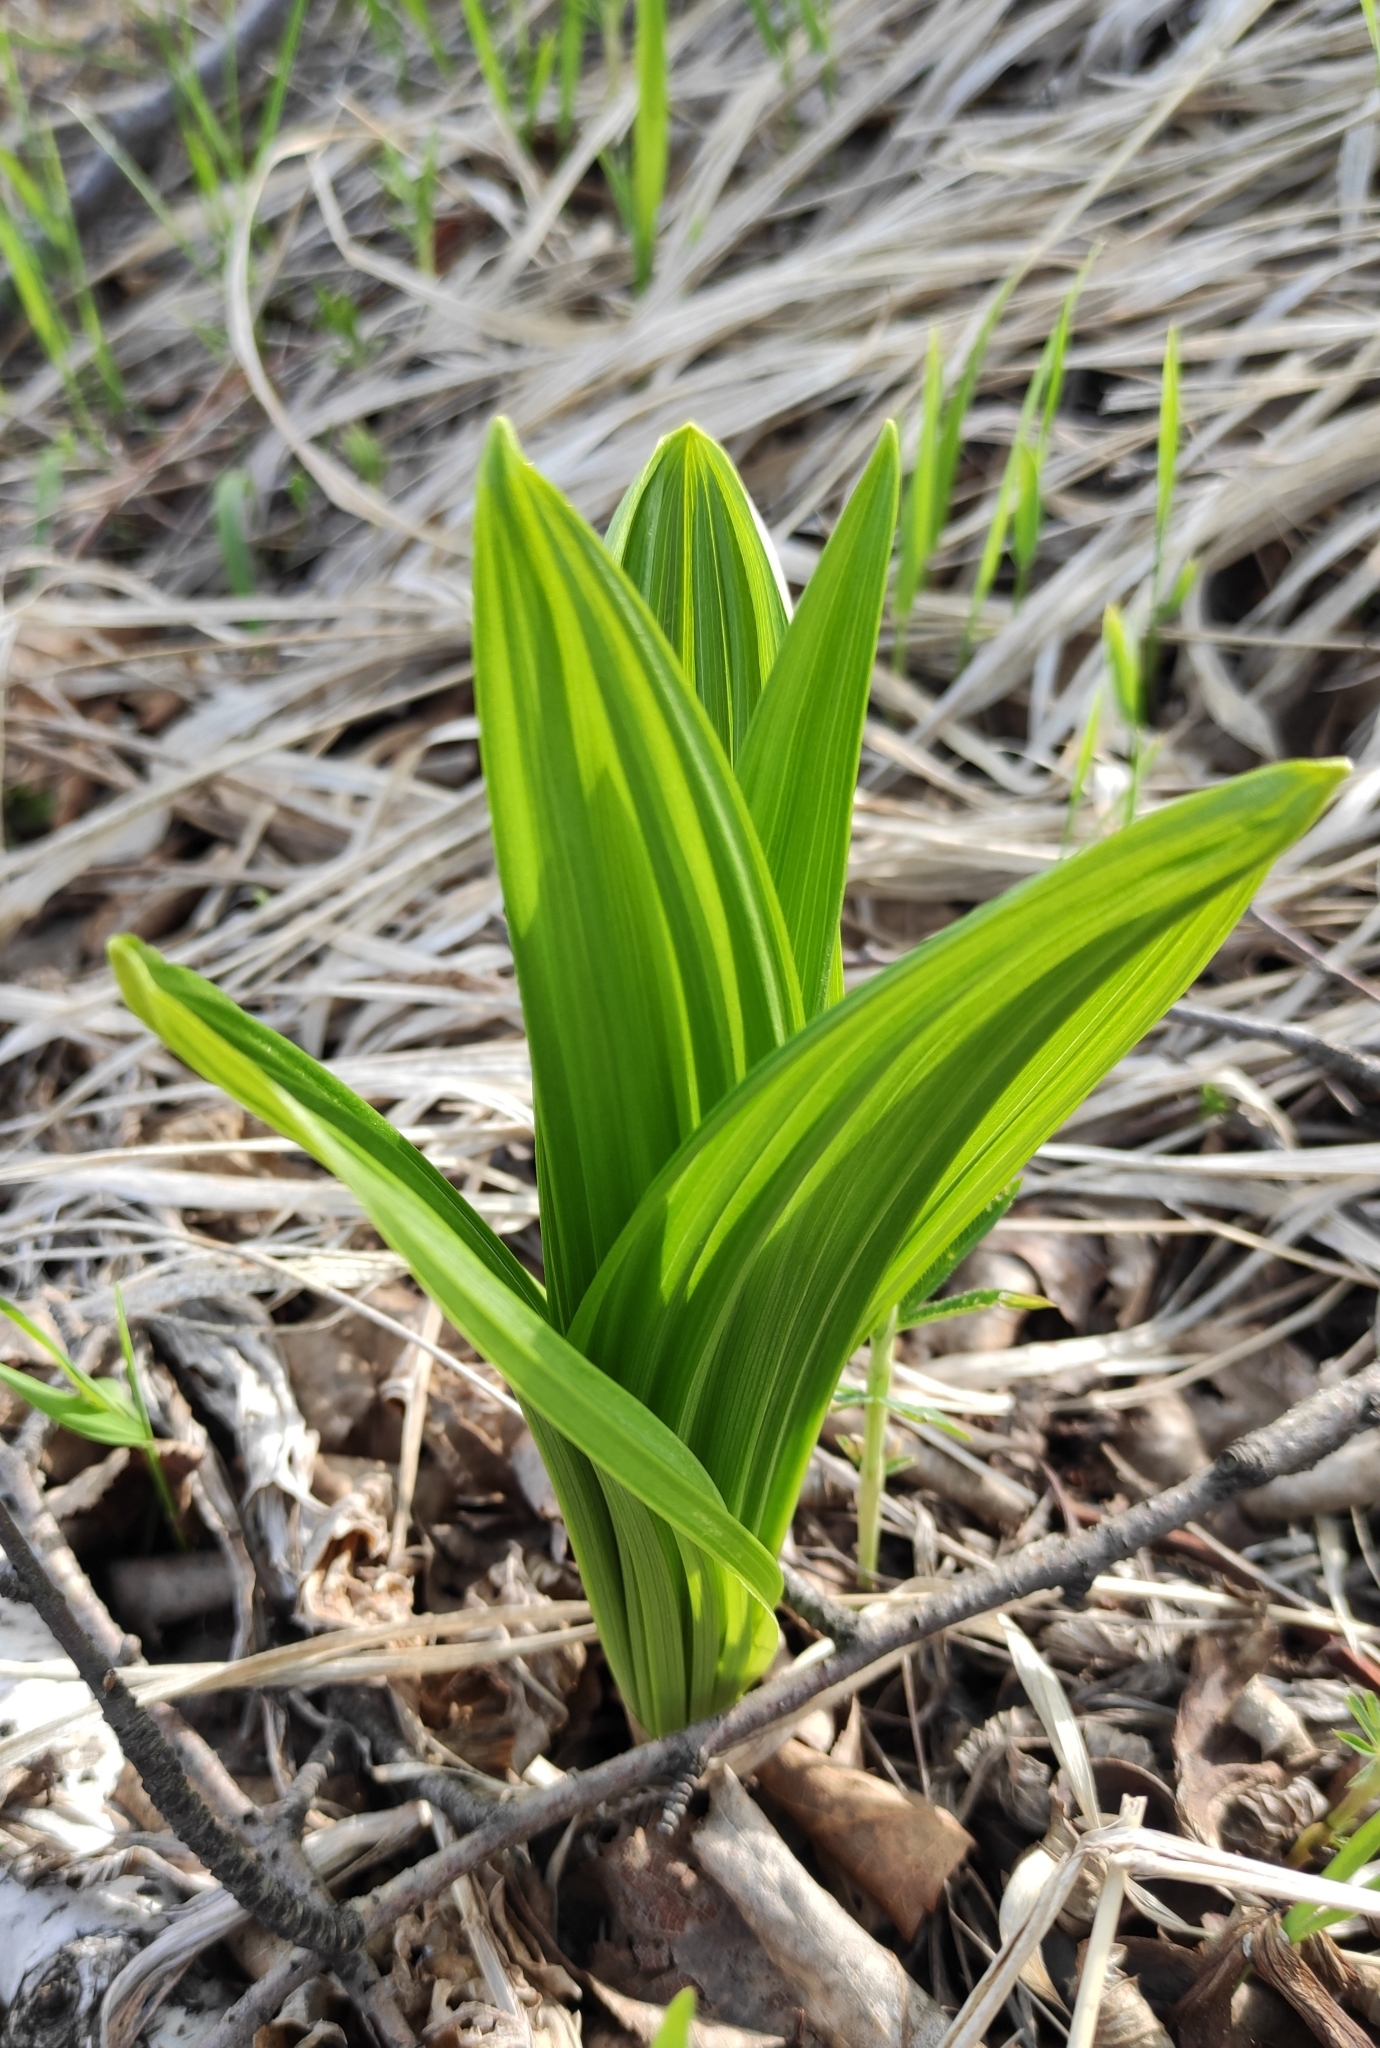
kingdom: Plantae
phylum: Tracheophyta
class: Liliopsida
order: Liliales
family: Melanthiaceae
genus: Veratrum
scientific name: Veratrum lobelianum
